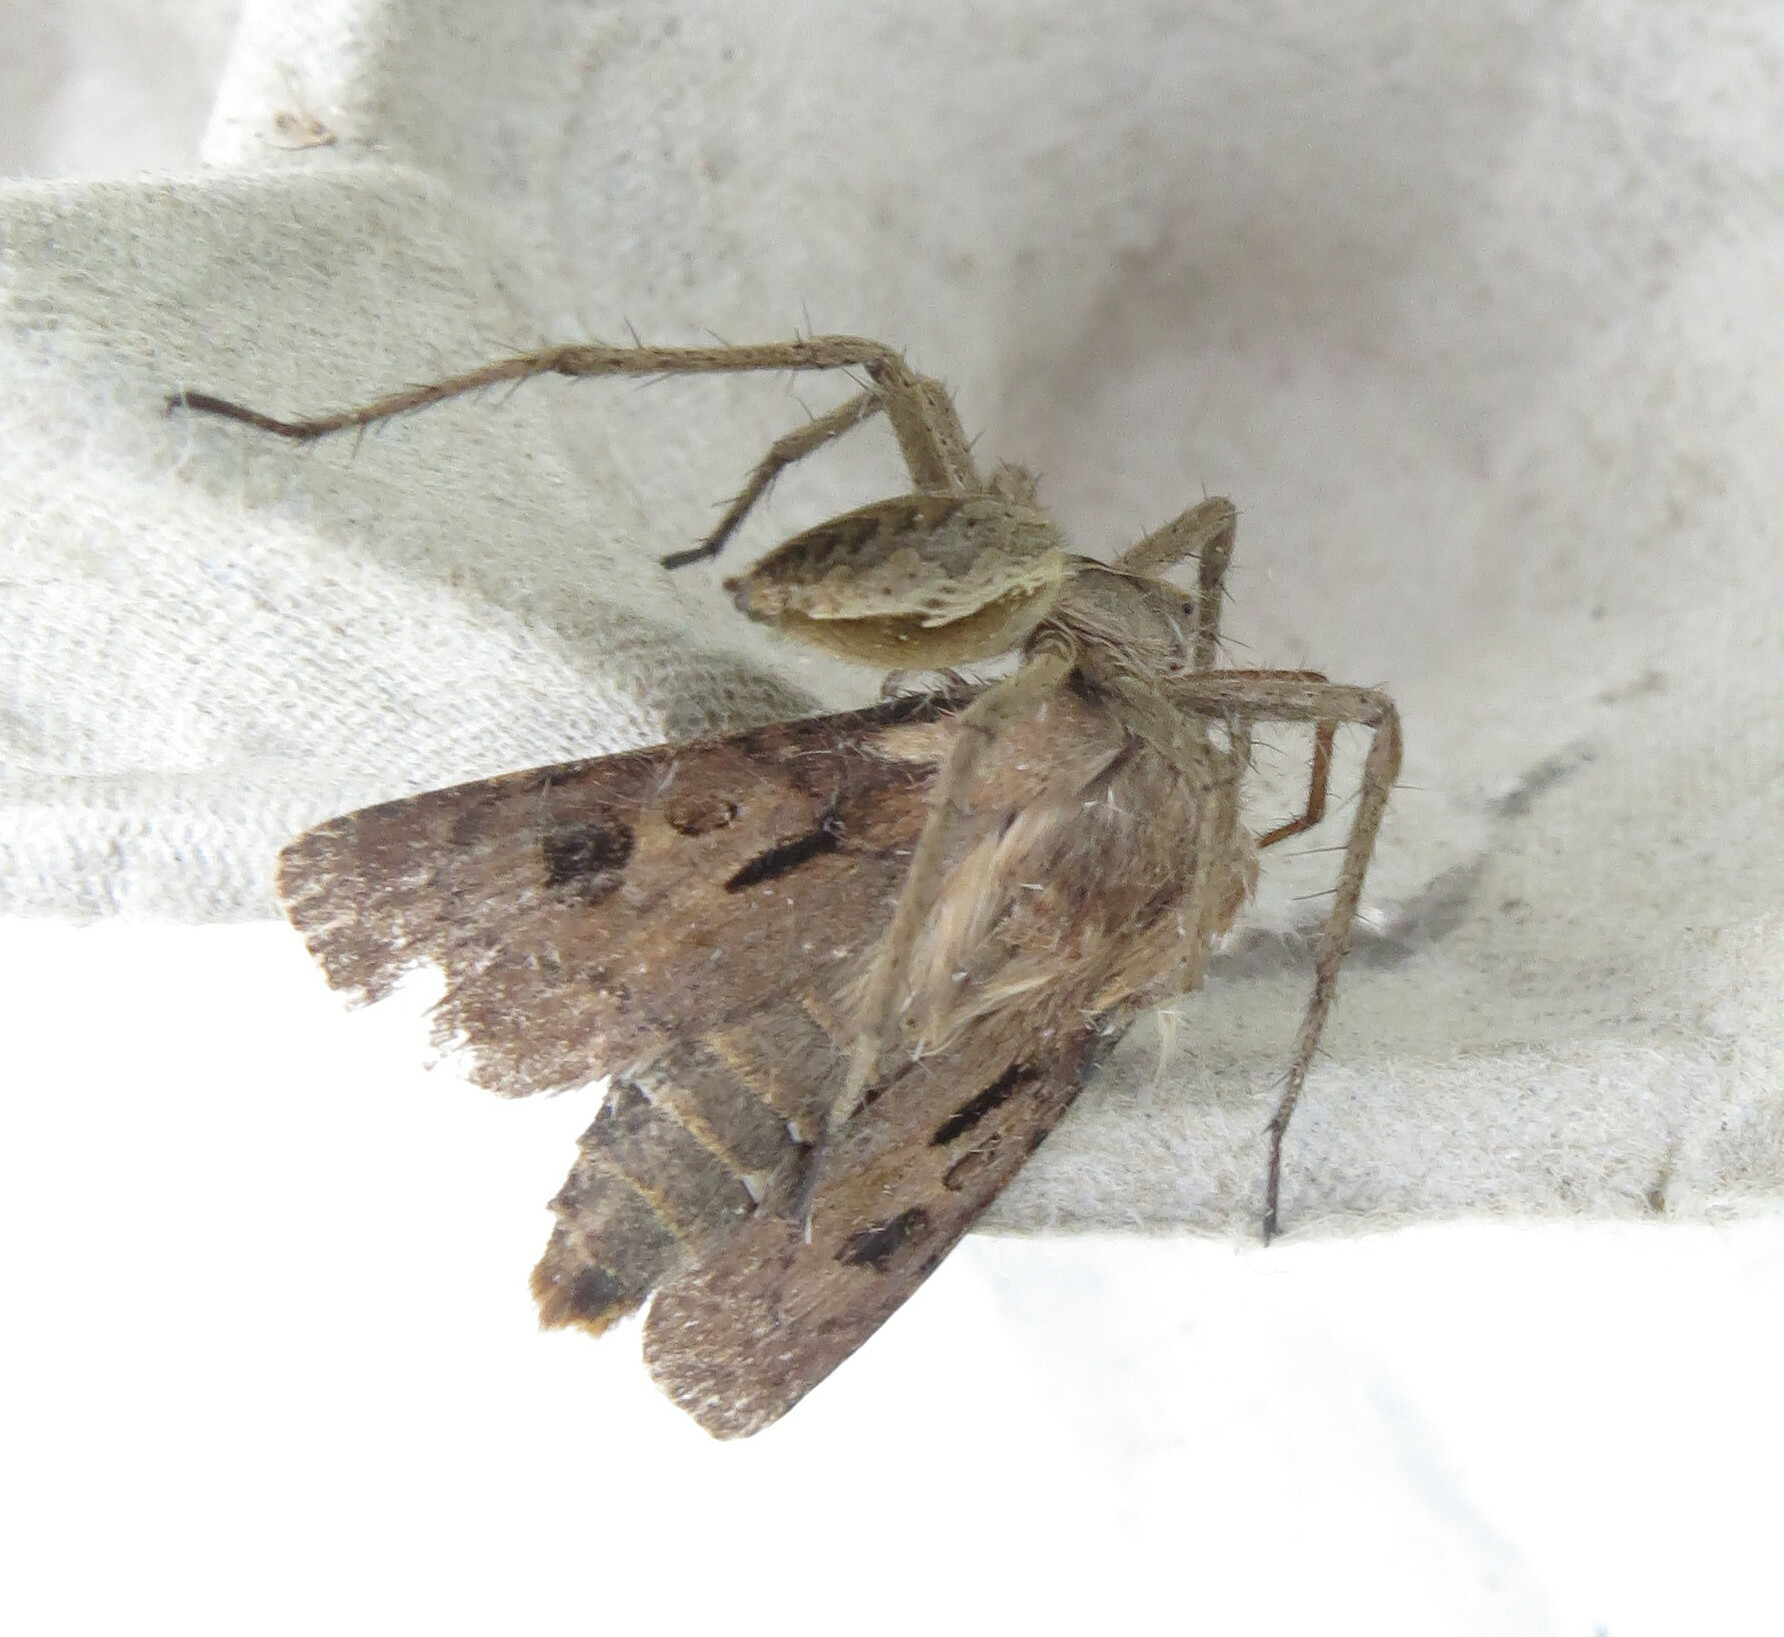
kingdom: Animalia
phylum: Arthropoda
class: Arachnida
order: Araneae
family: Pisauridae
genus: Pisaura
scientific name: Pisaura mirabilis
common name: Tent spider
